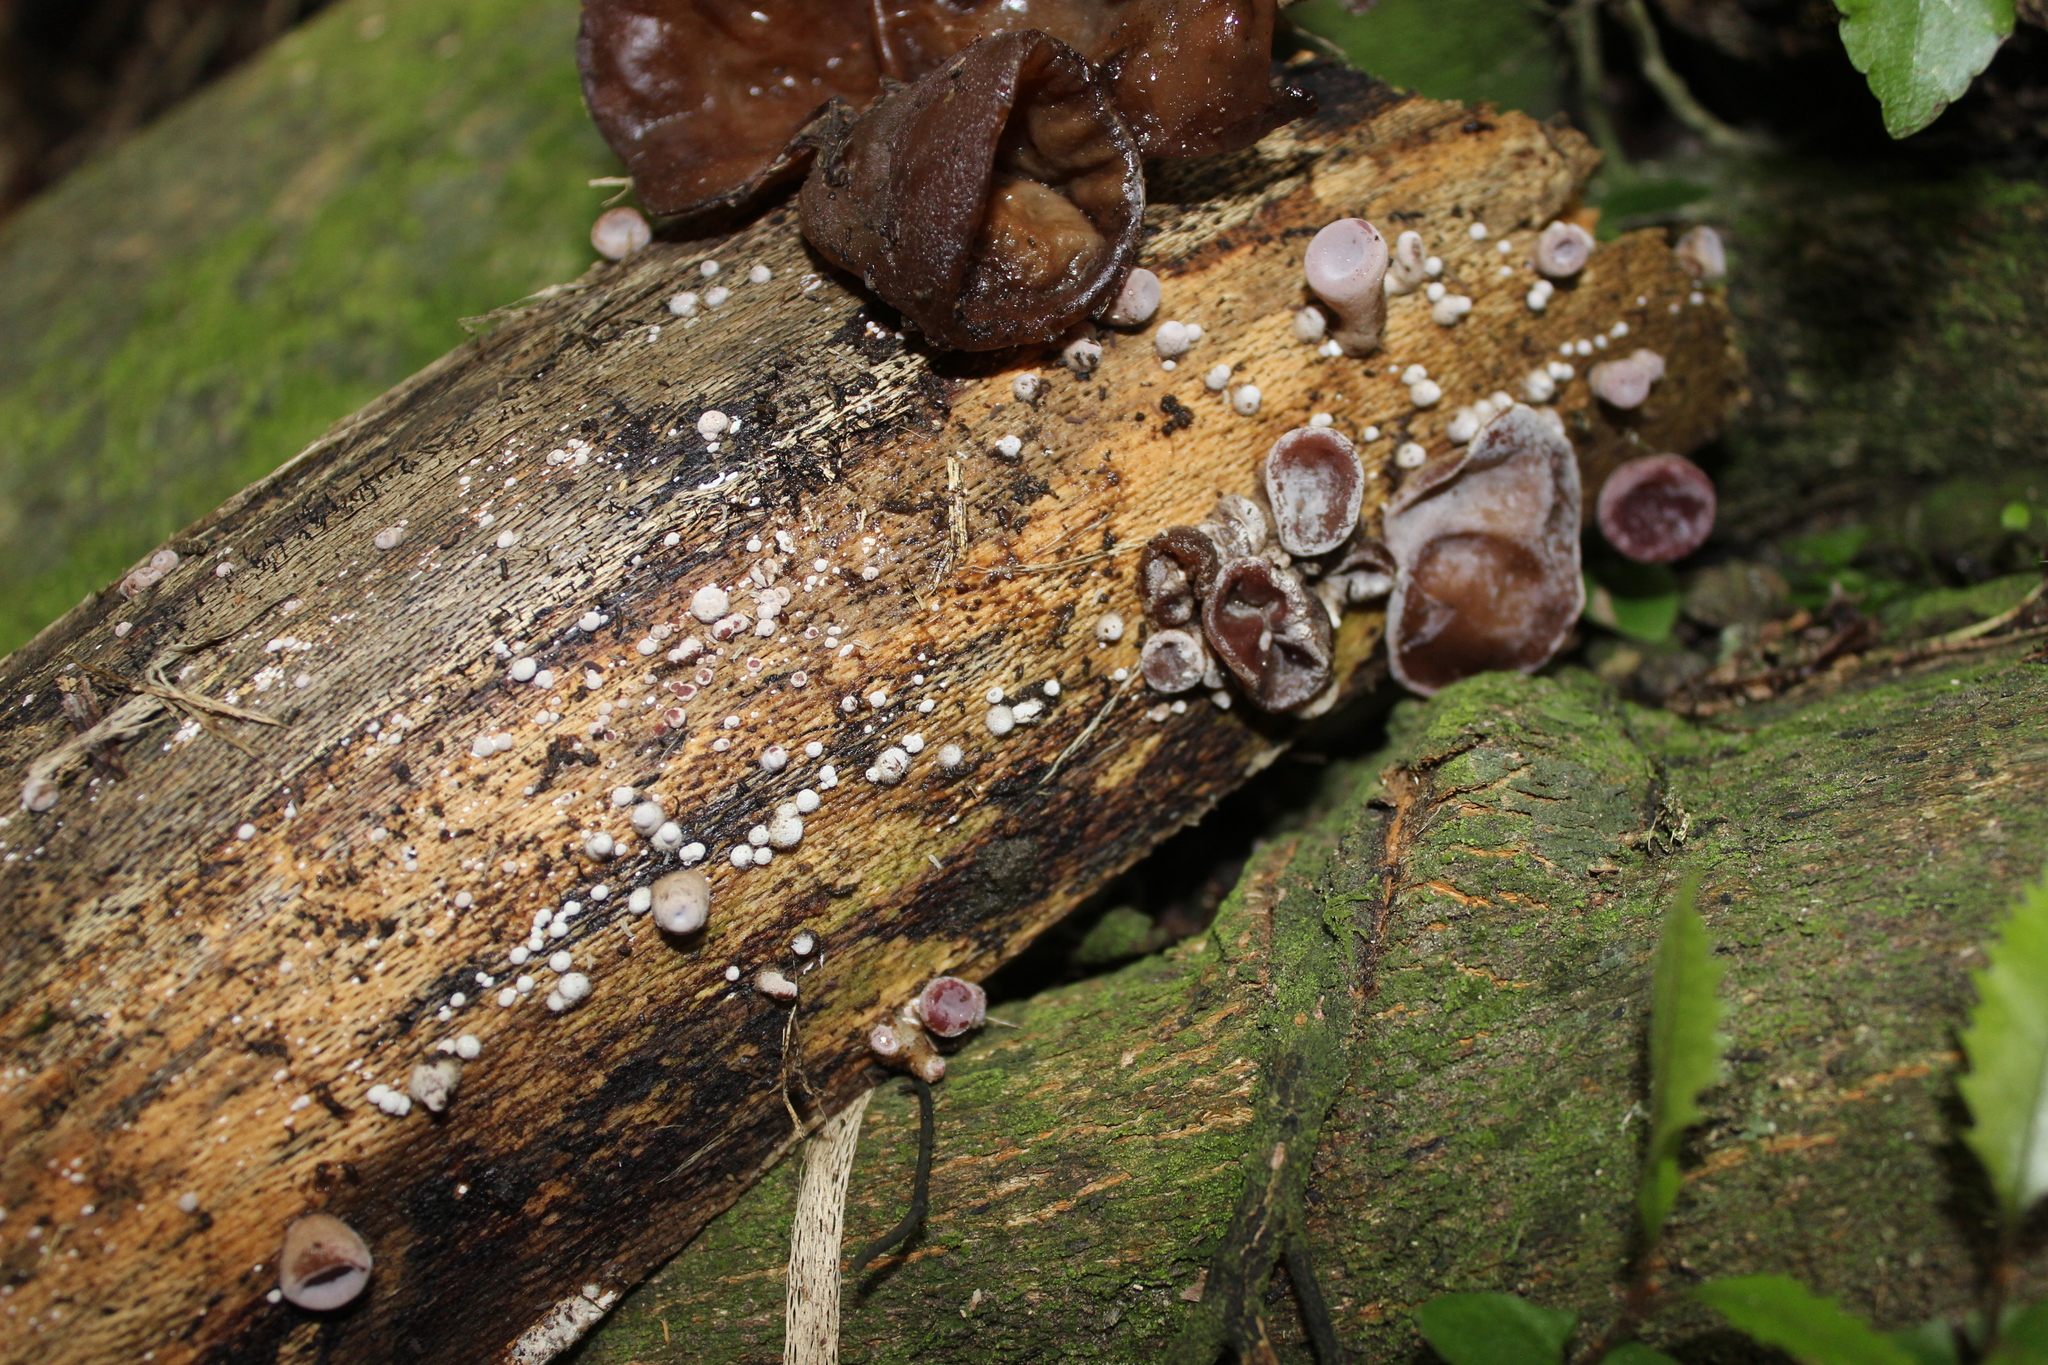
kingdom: Fungi
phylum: Basidiomycota
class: Agaricomycetes
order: Auriculariales
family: Auriculariaceae
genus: Auricularia
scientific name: Auricularia cornea
